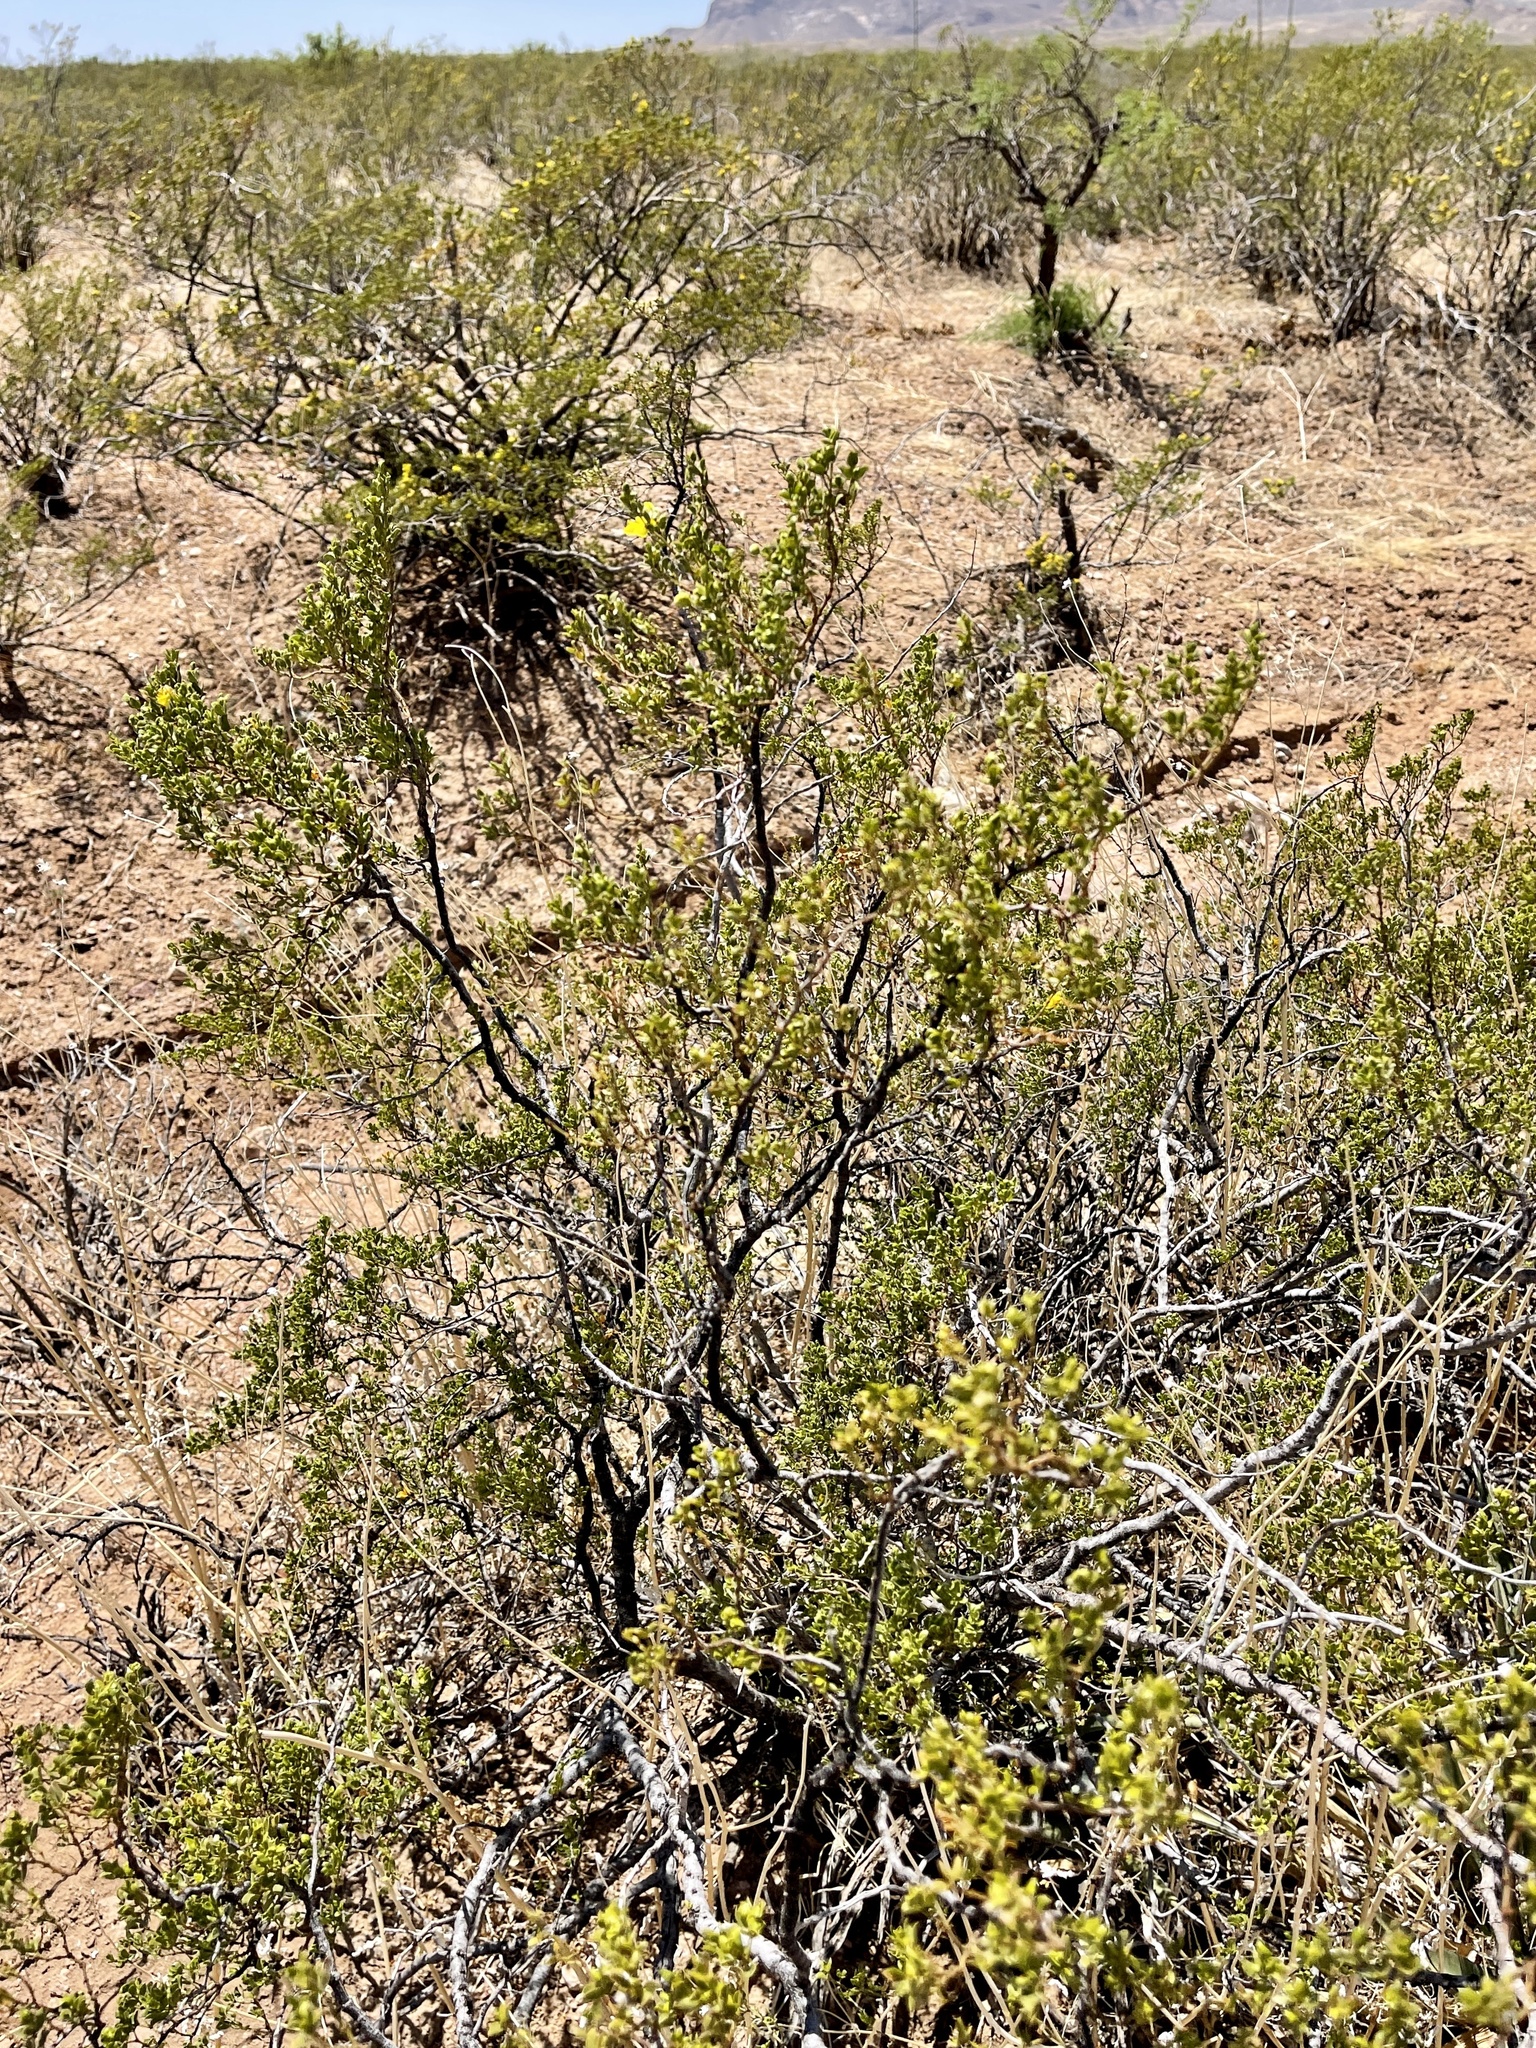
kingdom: Plantae
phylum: Tracheophyta
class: Magnoliopsida
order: Zygophyllales
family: Zygophyllaceae
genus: Larrea
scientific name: Larrea tridentata
